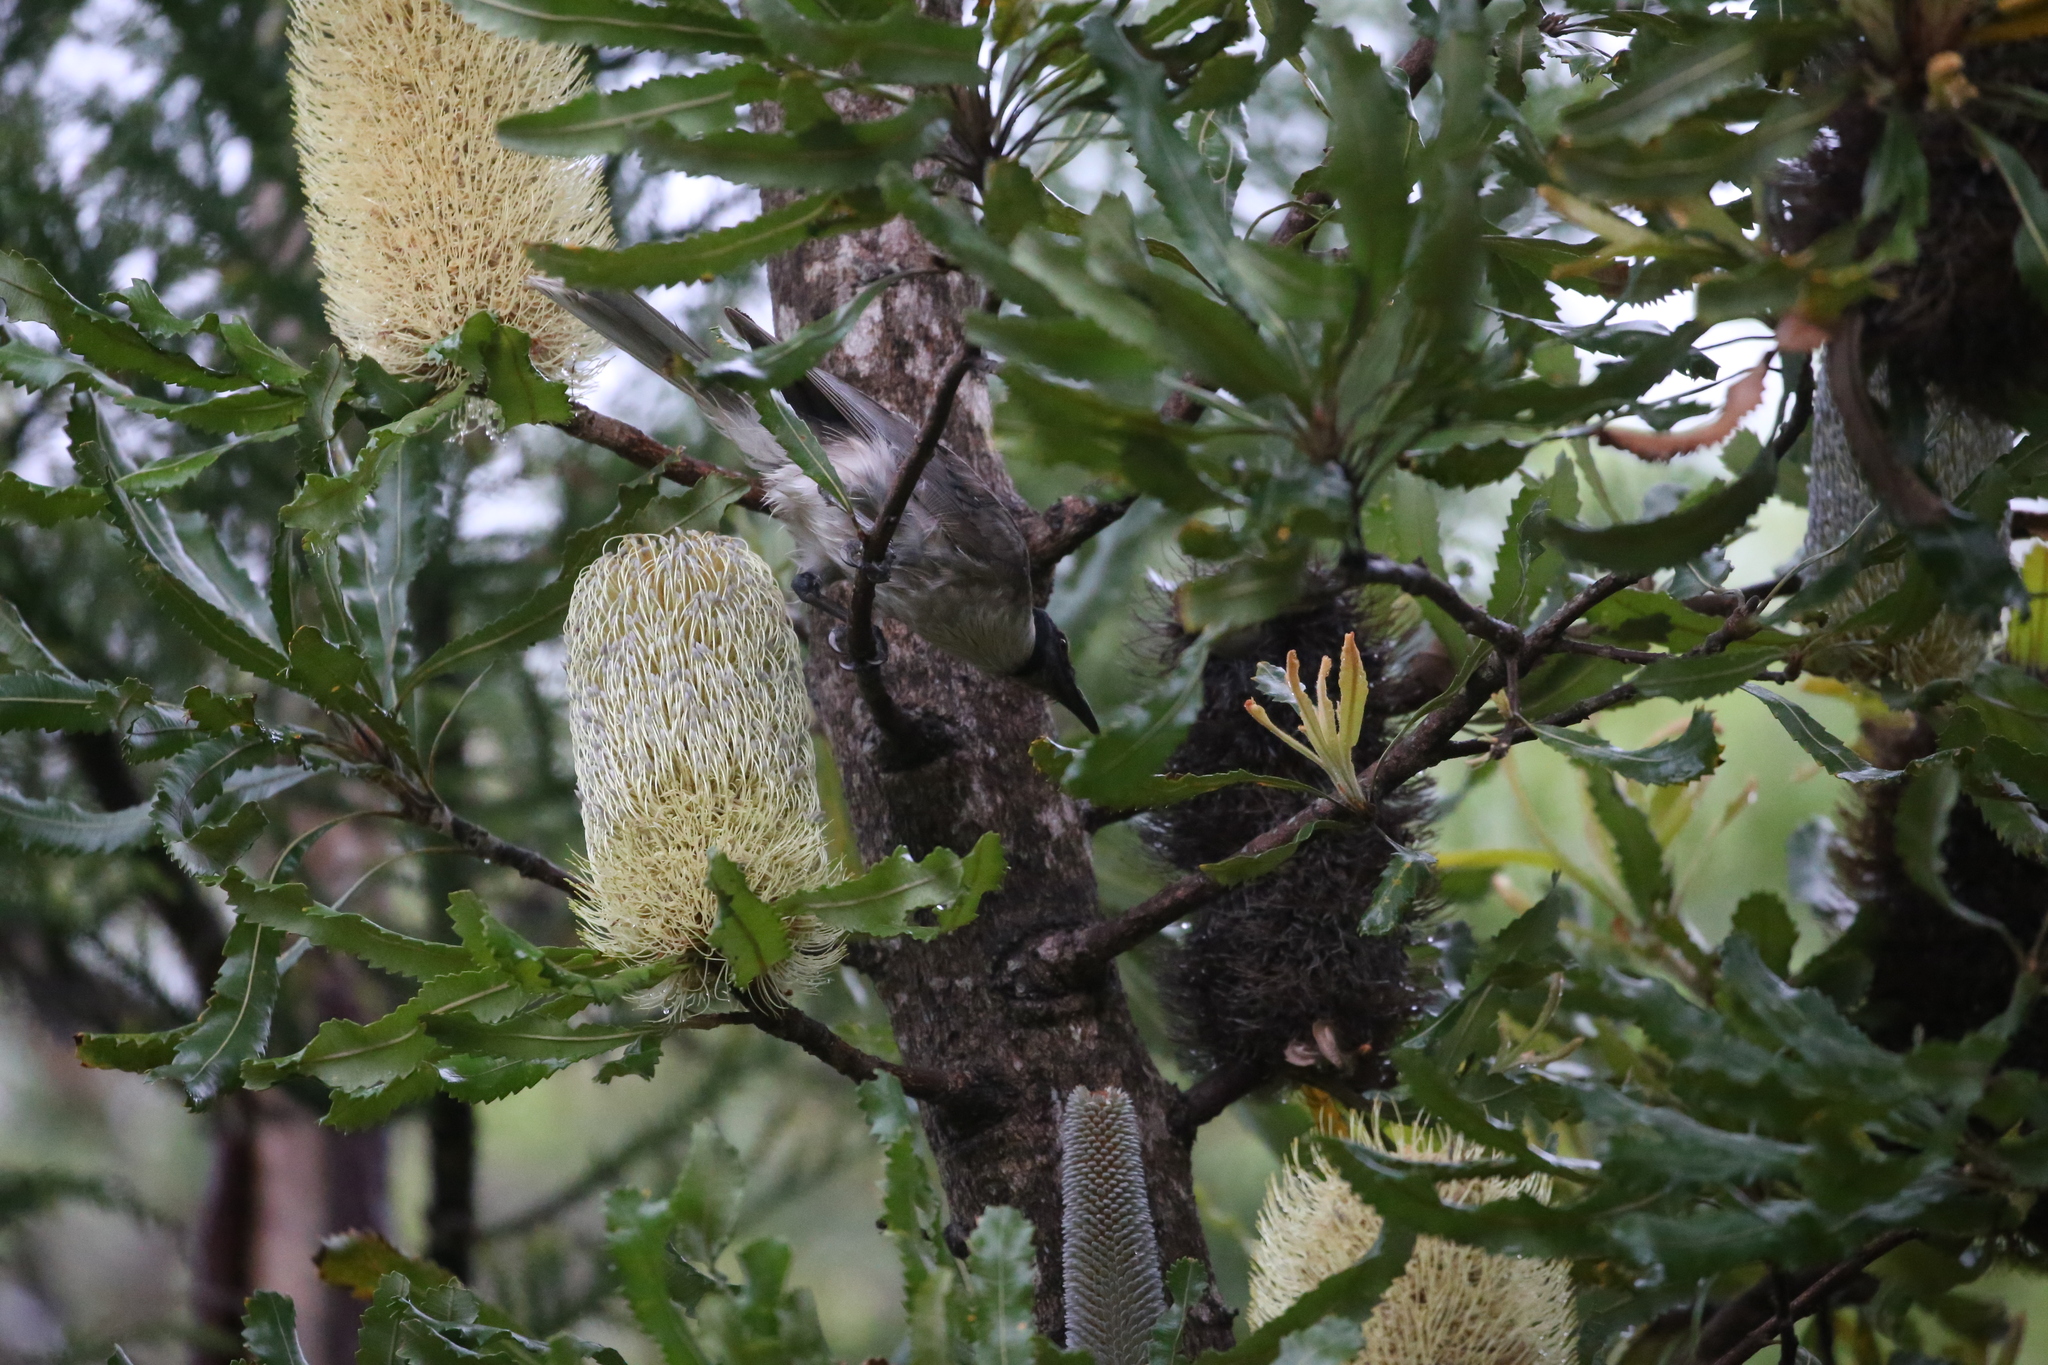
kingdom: Animalia
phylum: Chordata
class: Aves
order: Passeriformes
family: Meliphagidae
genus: Philemon
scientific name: Philemon corniculatus
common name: Noisy friarbird
